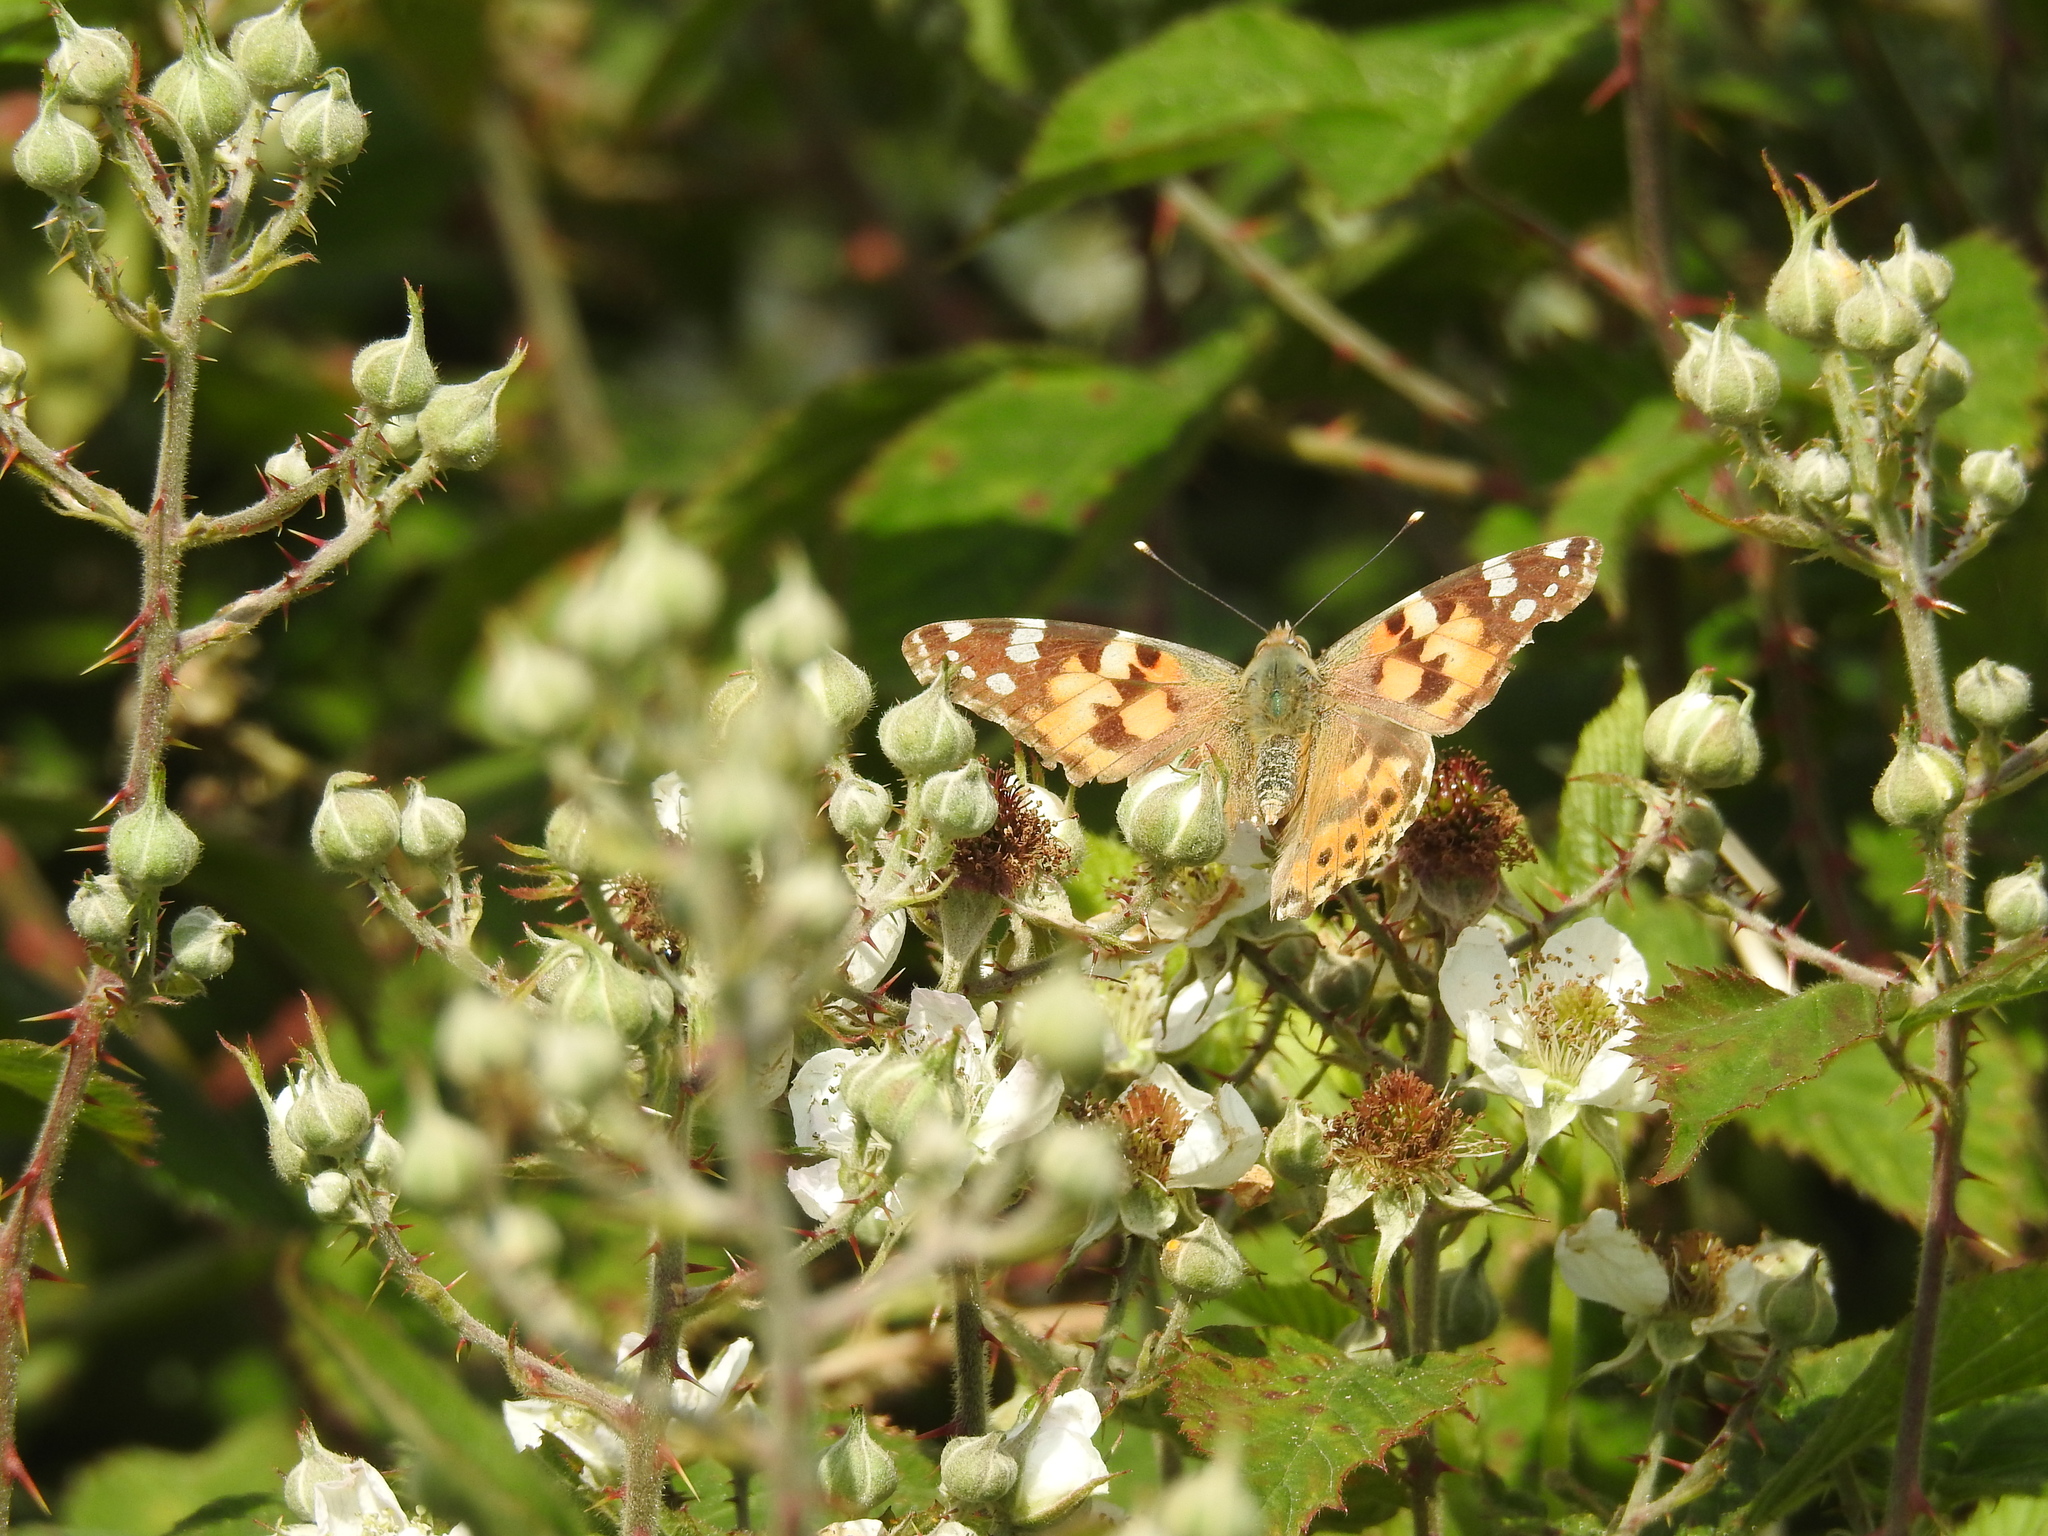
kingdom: Animalia
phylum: Arthropoda
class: Insecta
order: Lepidoptera
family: Nymphalidae
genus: Vanessa
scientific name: Vanessa cardui
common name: Painted lady
